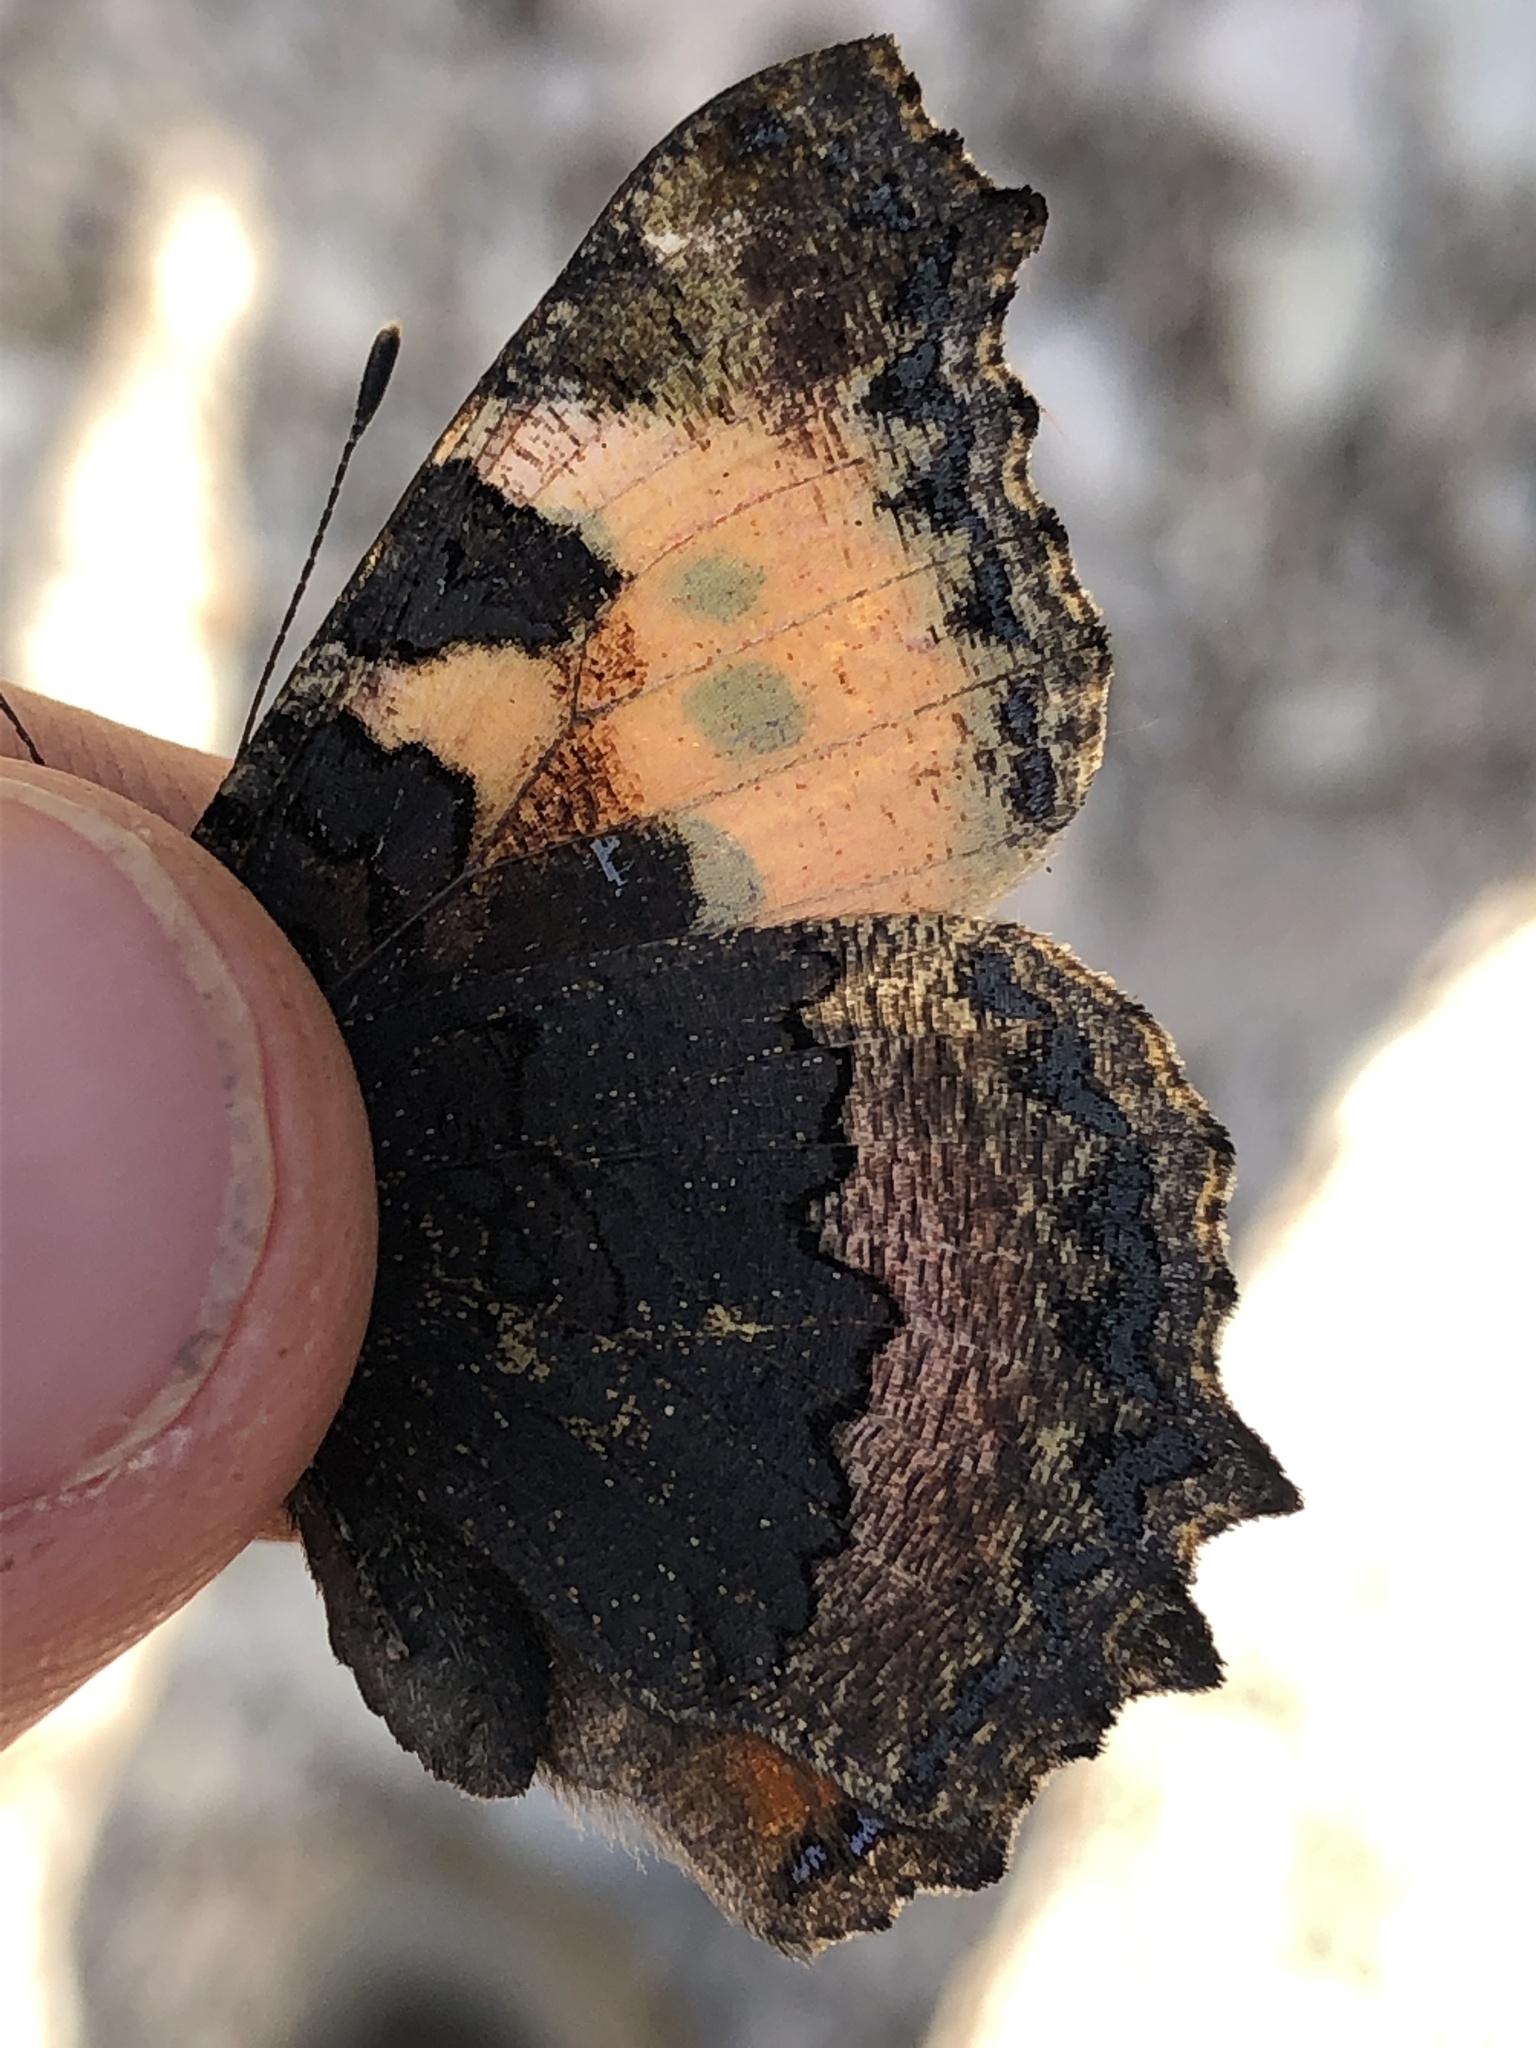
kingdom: Animalia
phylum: Arthropoda
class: Insecta
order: Lepidoptera
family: Nymphalidae
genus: Aglais
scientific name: Aglais urticae
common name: Small tortoiseshell
